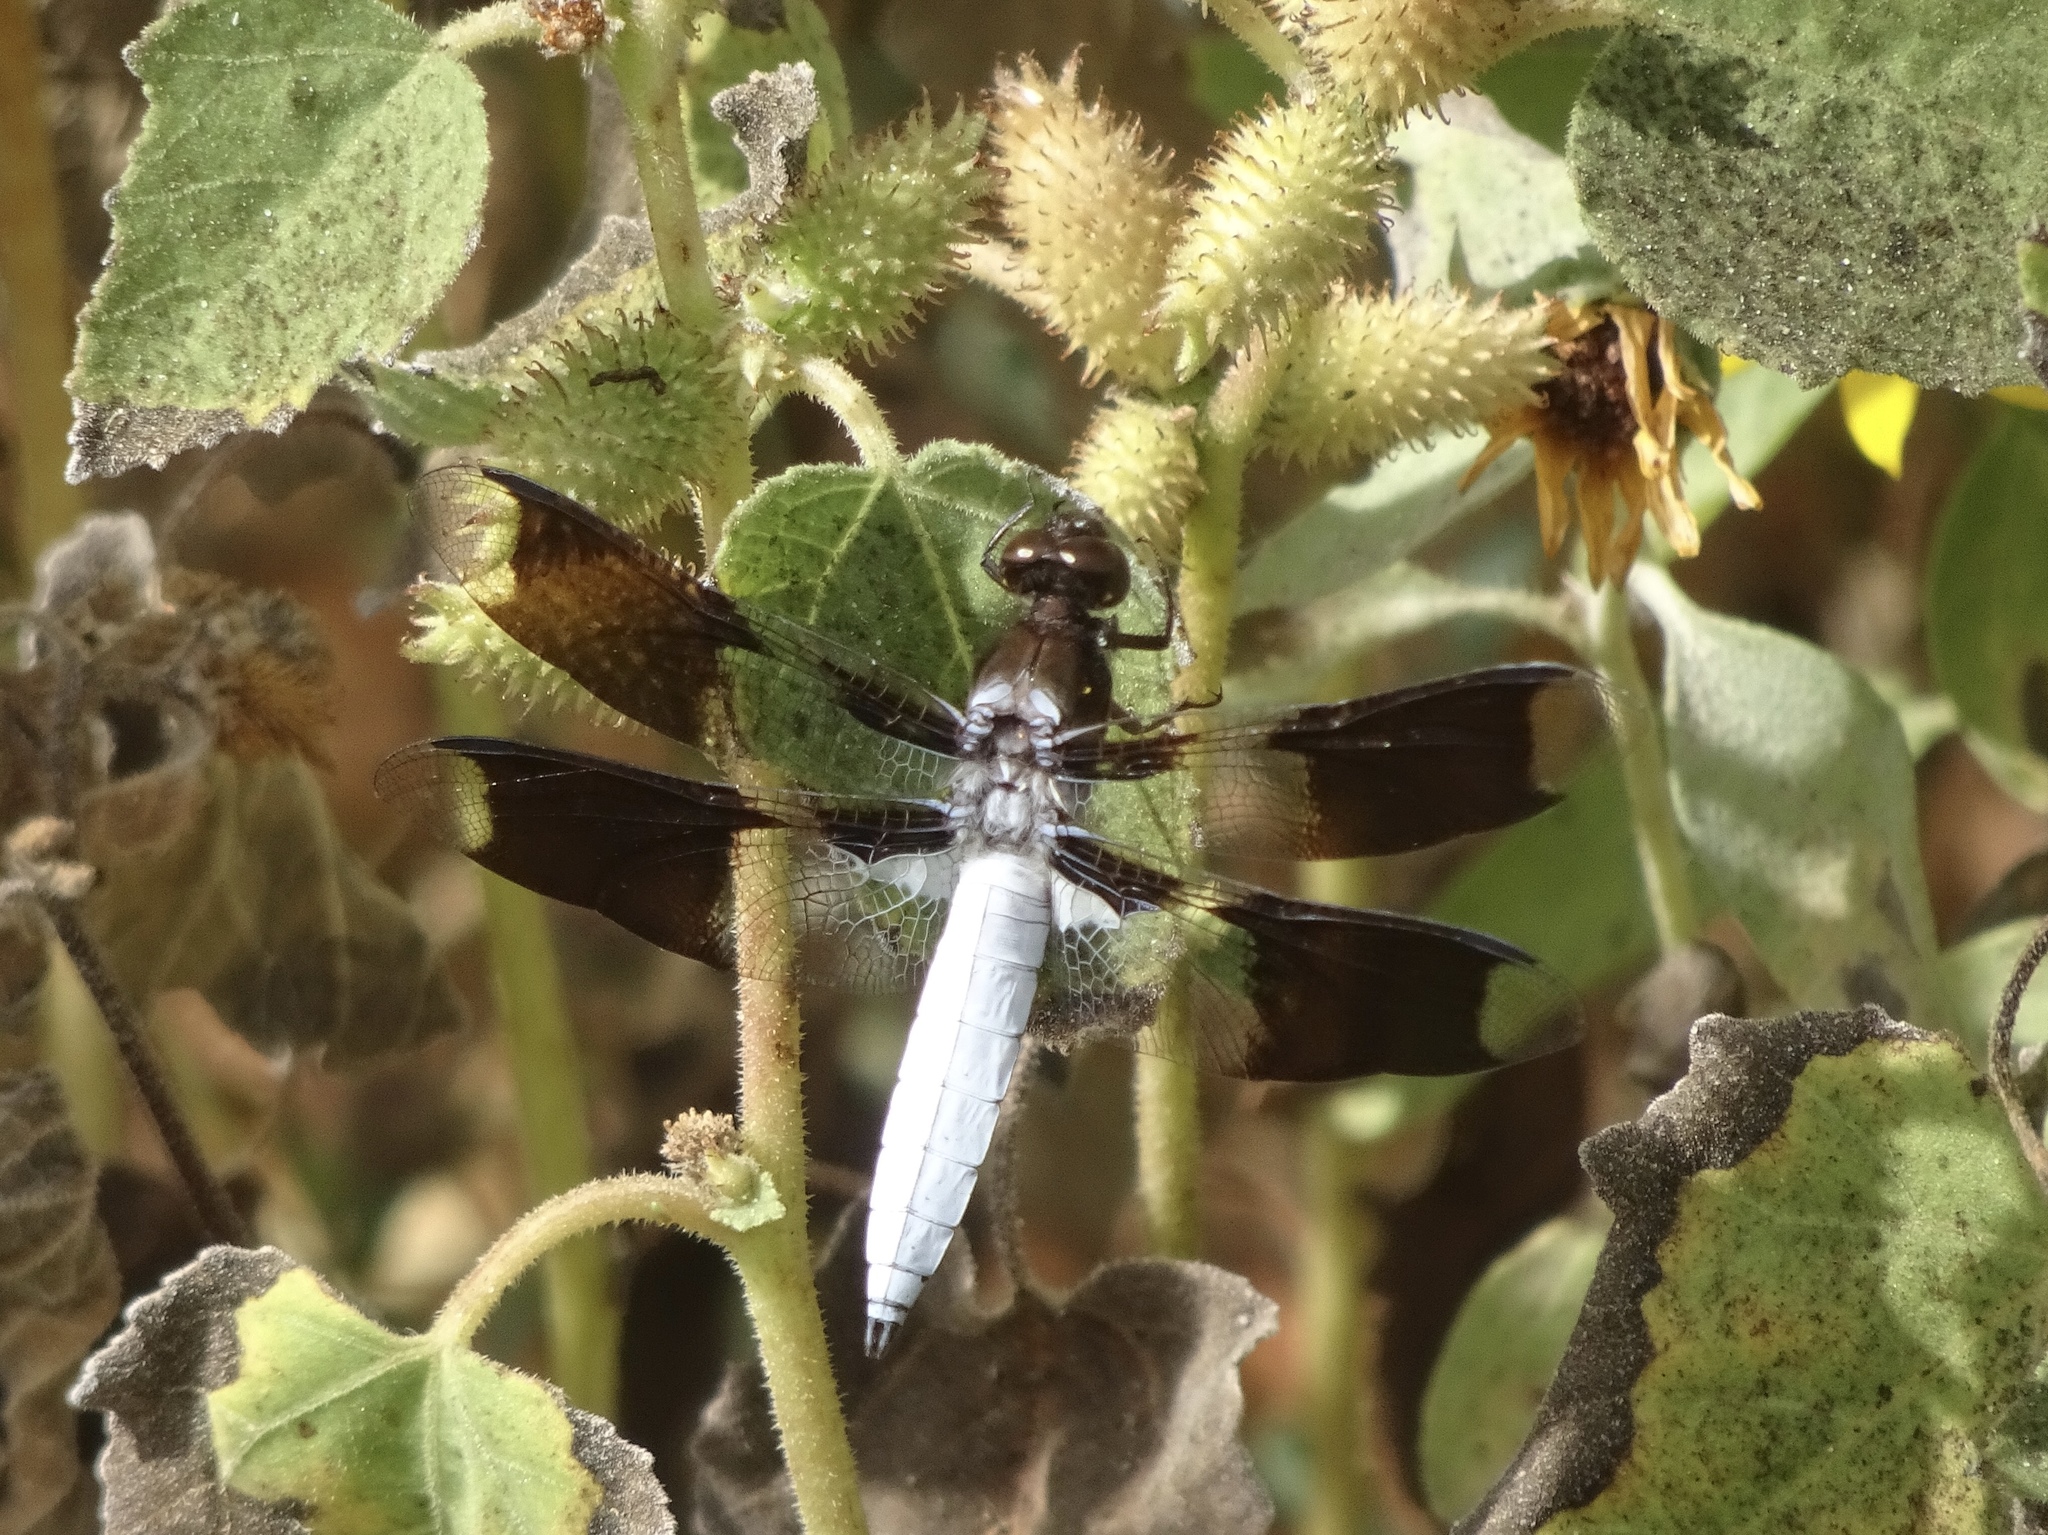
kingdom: Animalia
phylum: Arthropoda
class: Insecta
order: Odonata
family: Libellulidae
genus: Plathemis
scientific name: Plathemis lydia
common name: Common whitetail
